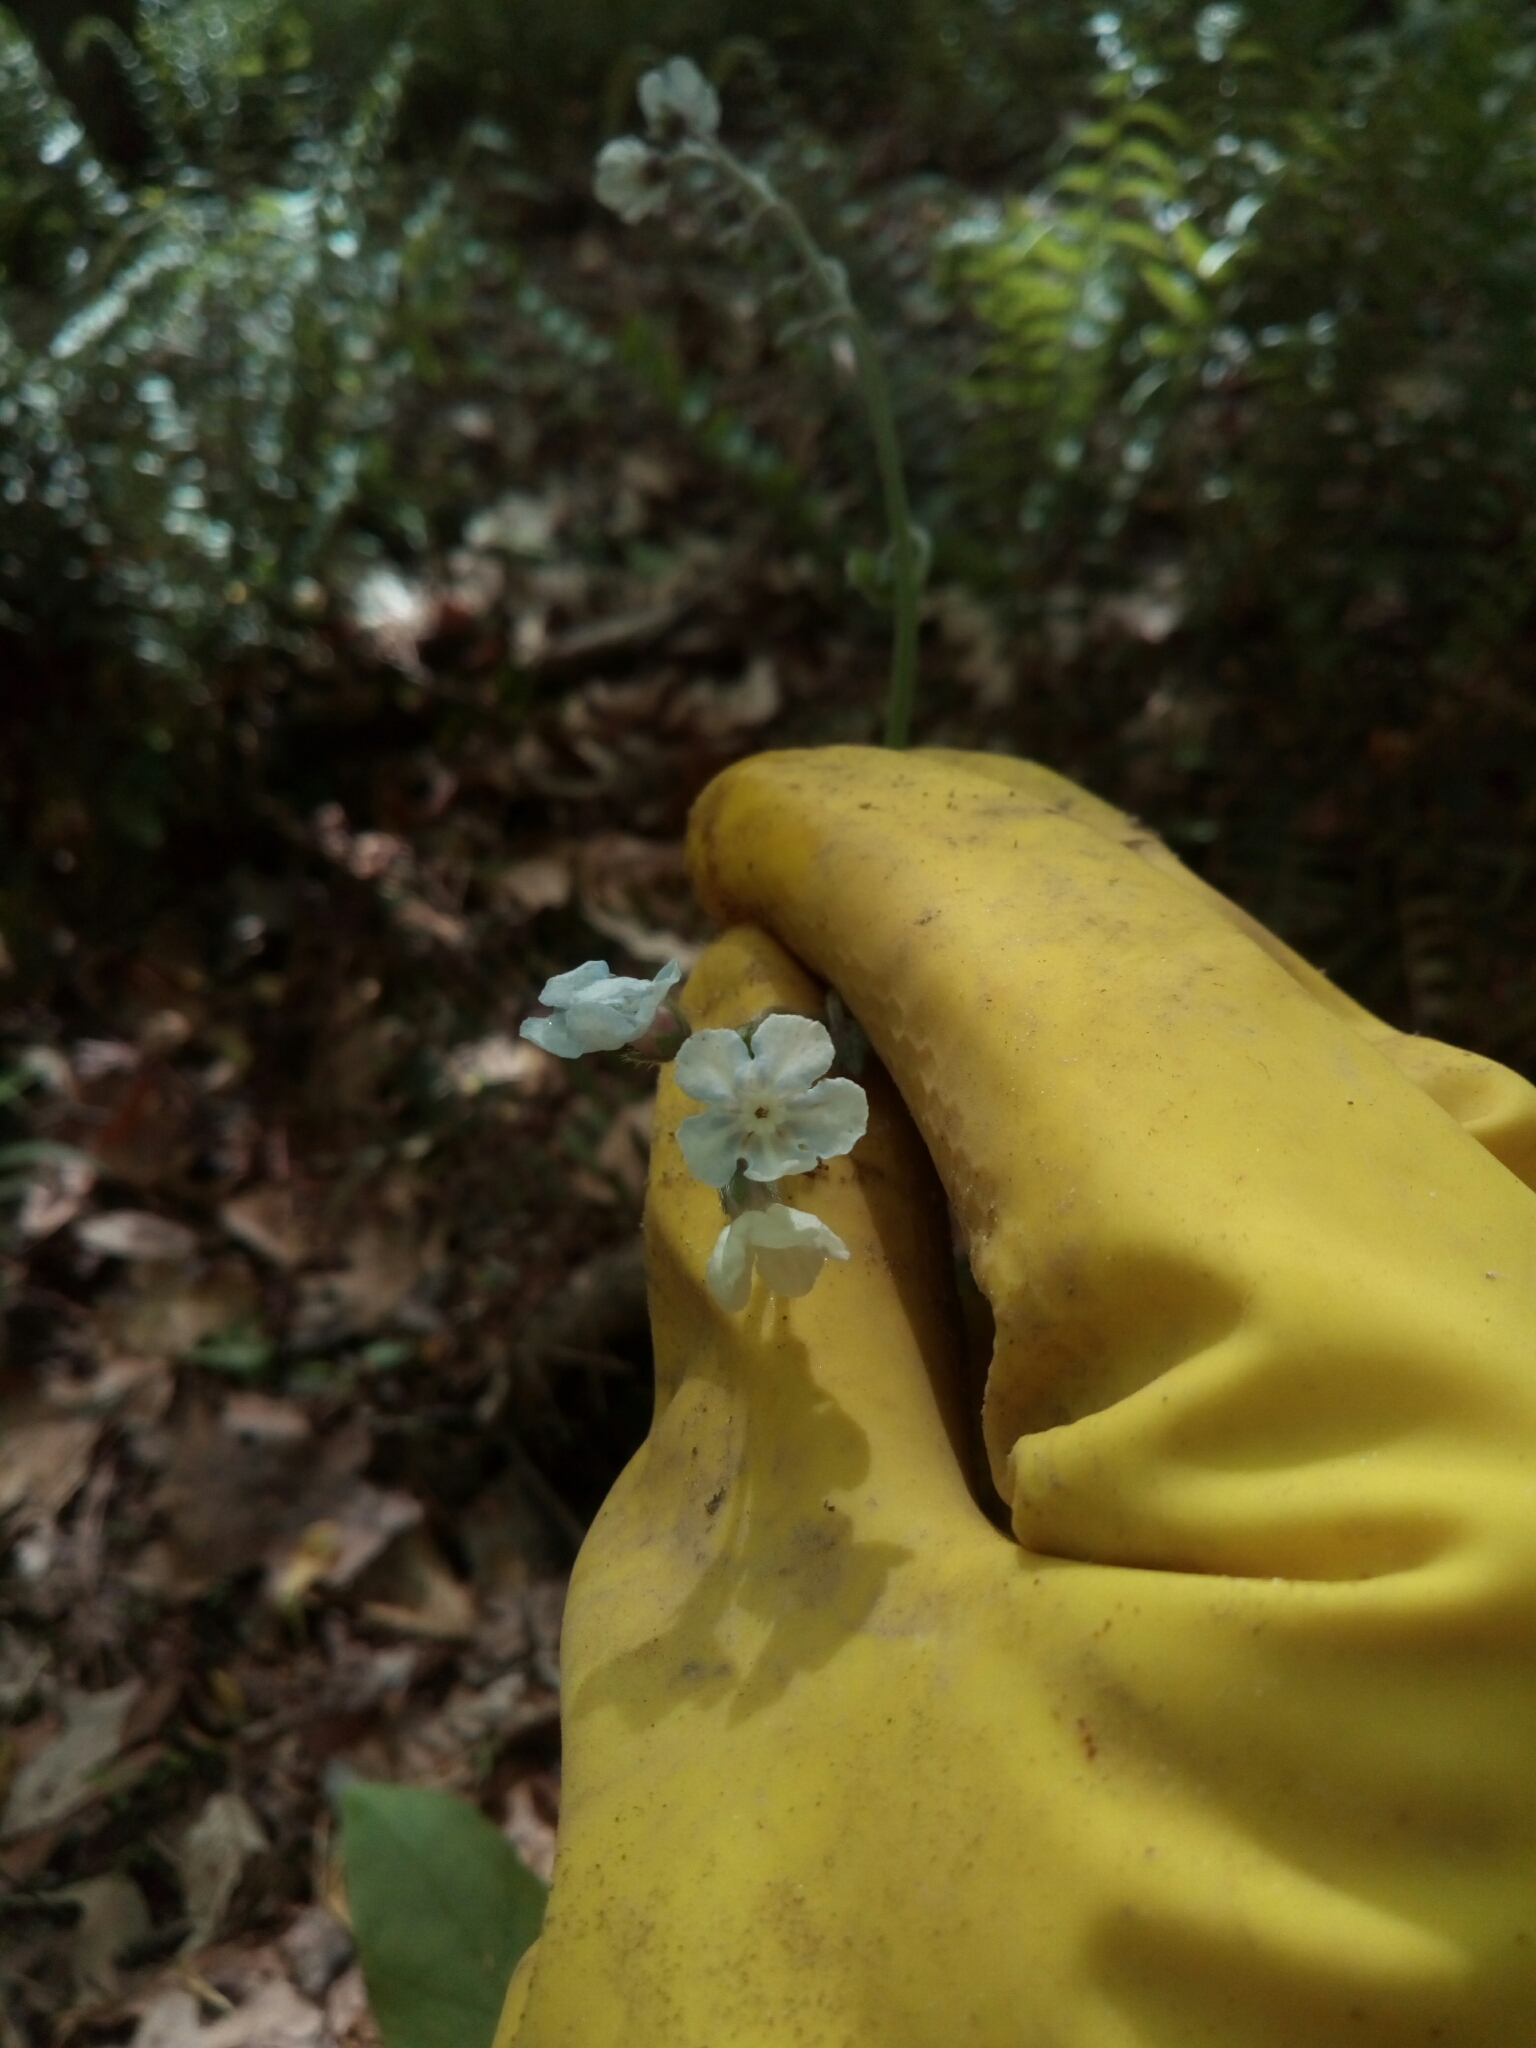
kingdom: Plantae
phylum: Tracheophyta
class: Magnoliopsida
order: Boraginales
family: Boraginaceae
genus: Andersonglossum
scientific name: Andersonglossum virginianum
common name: Wild comfrey
